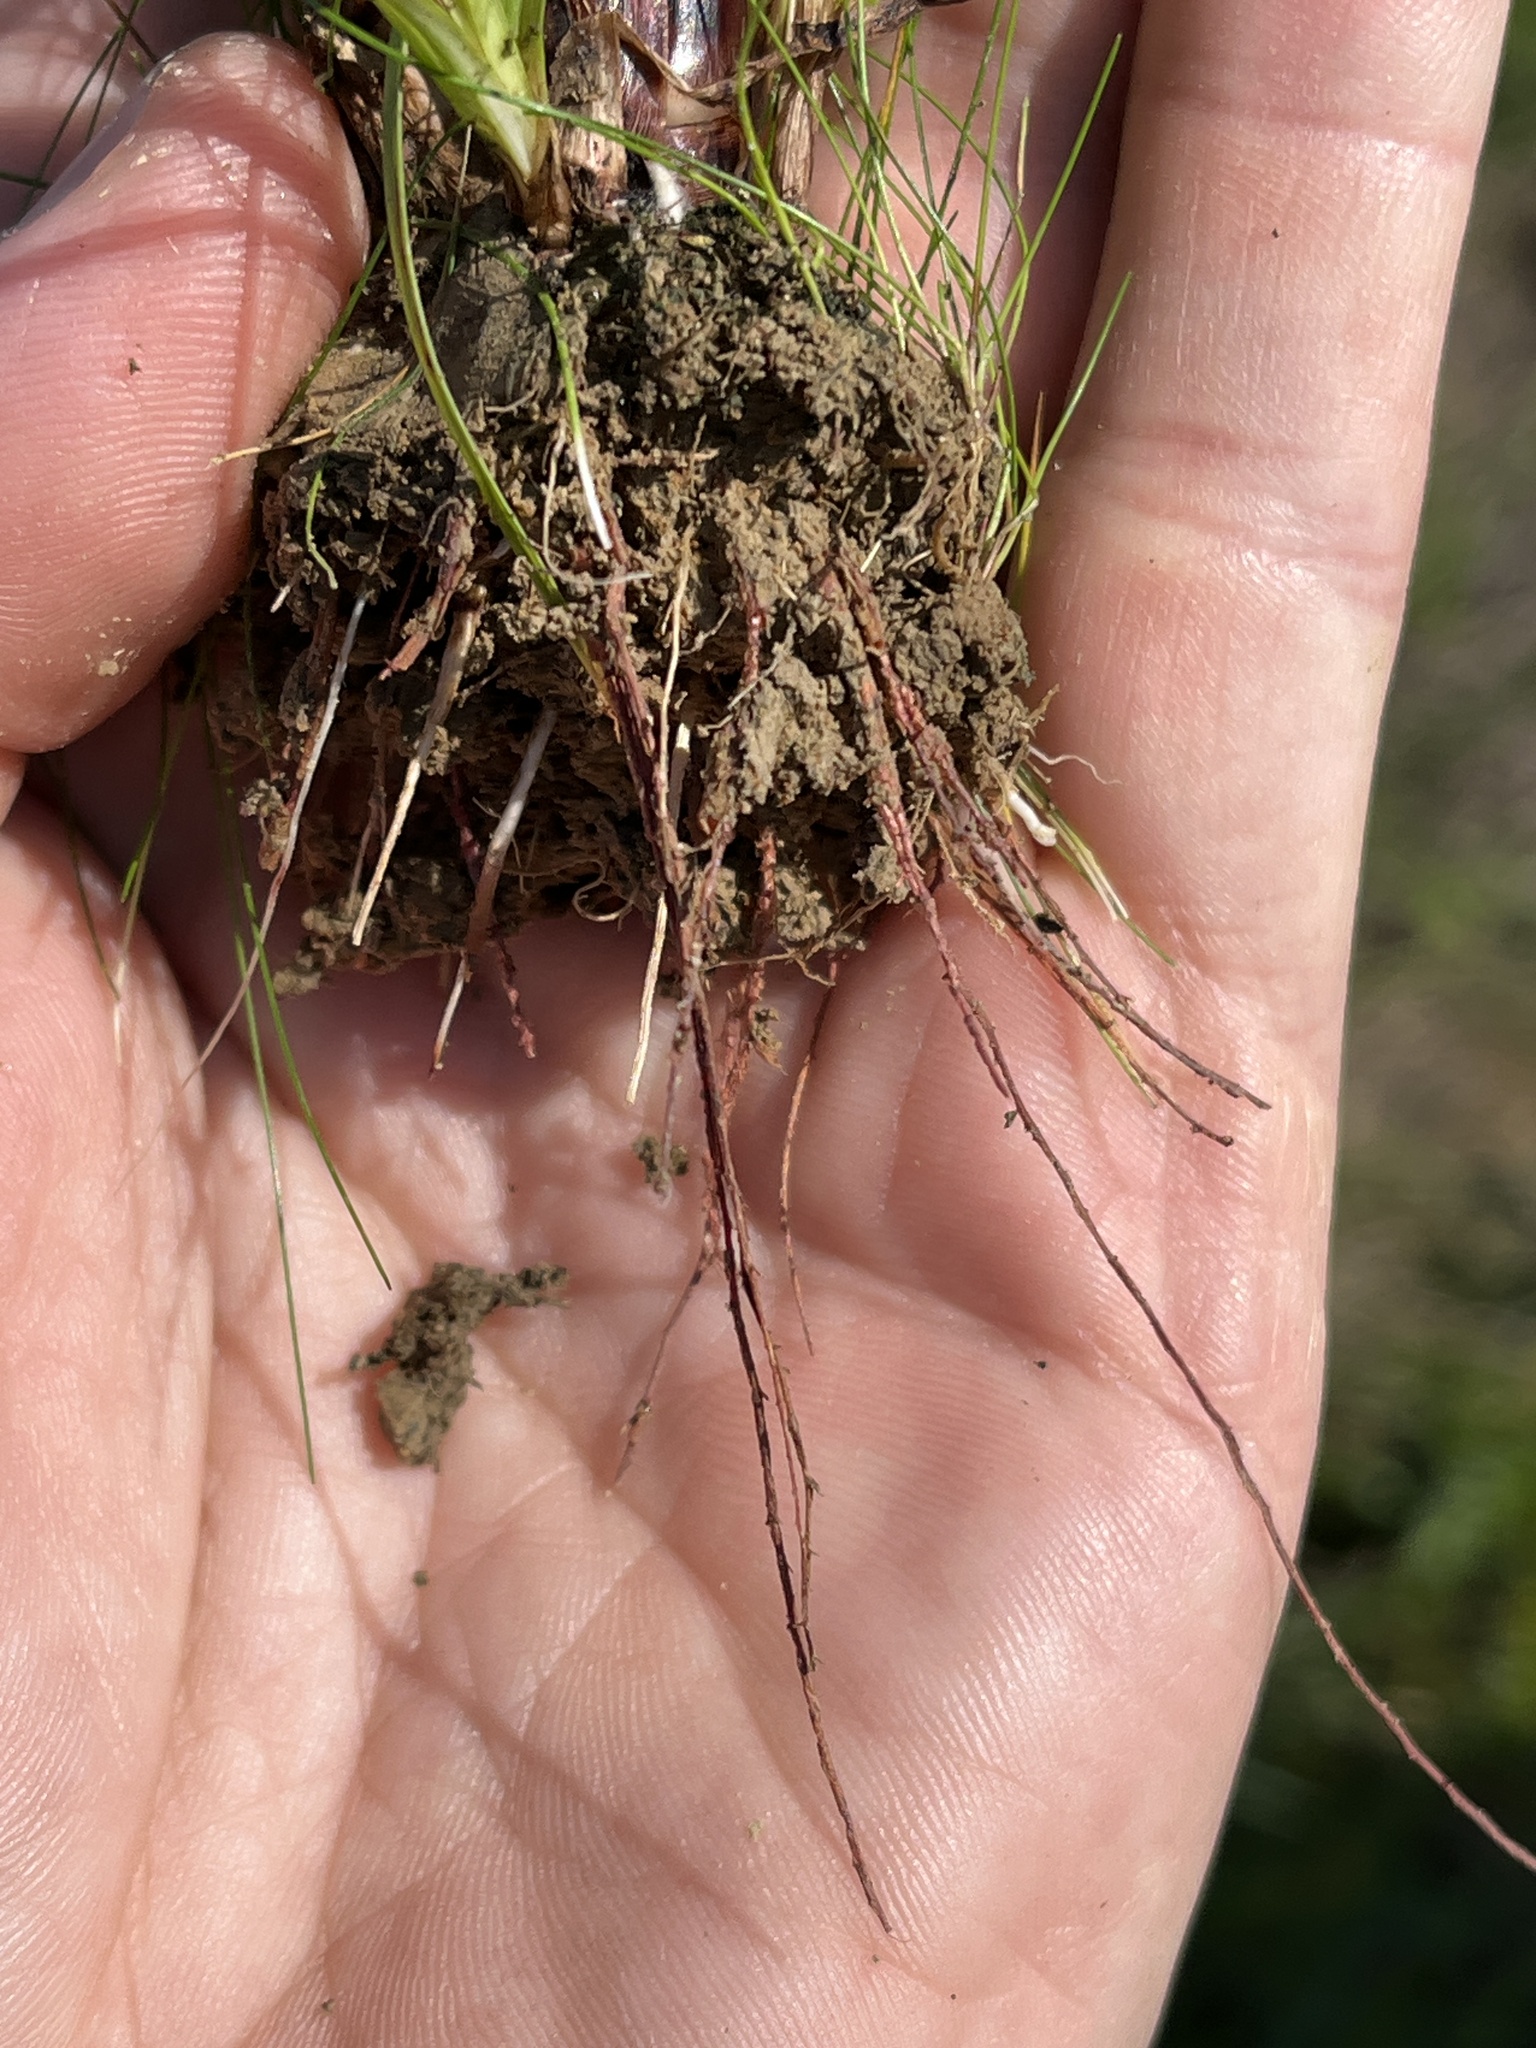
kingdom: Plantae
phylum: Tracheophyta
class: Liliopsida
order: Poales
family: Cyperaceae
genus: Cyperus
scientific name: Cyperus erythrorhizos
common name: Red-root flat sedge
